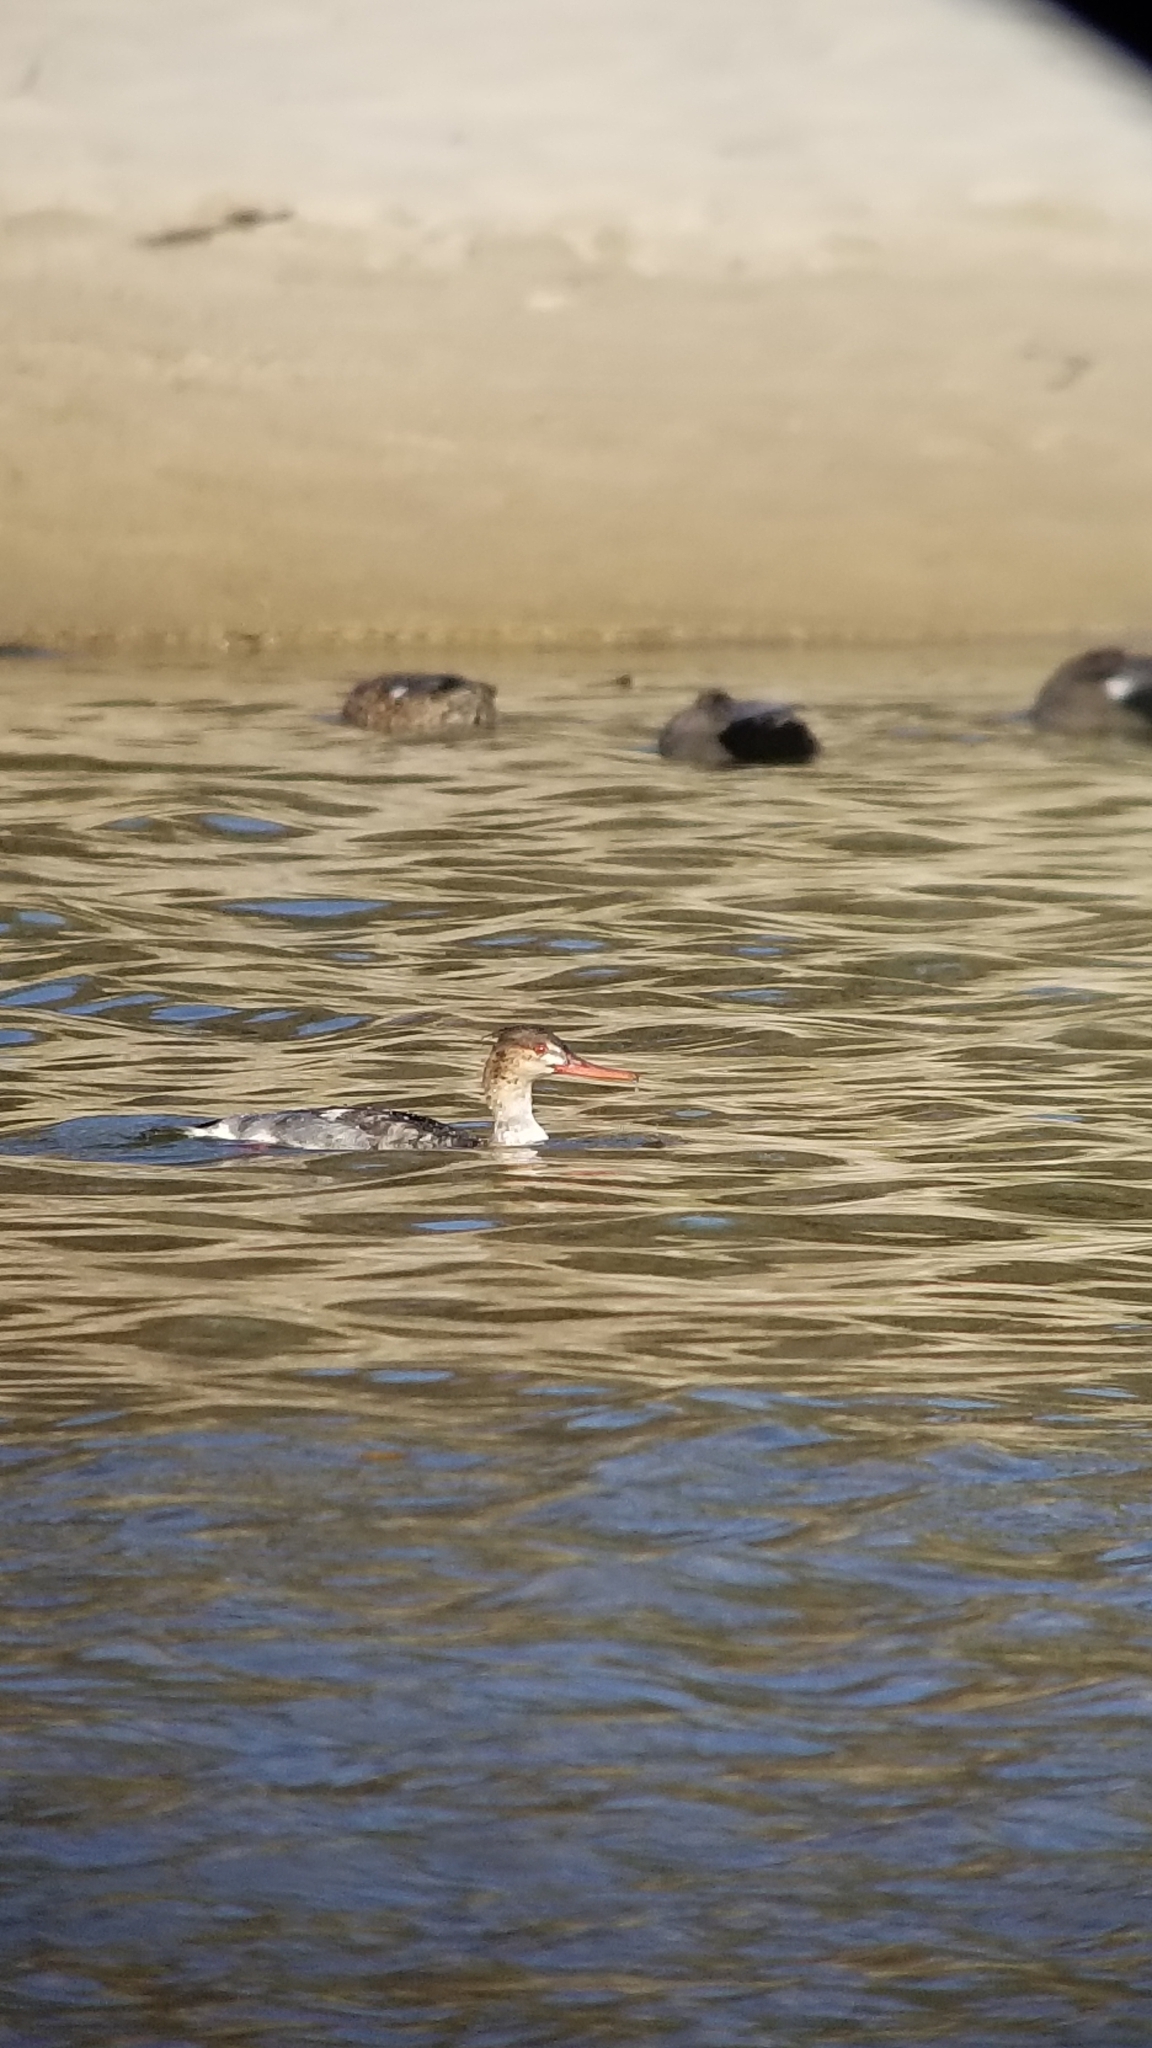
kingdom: Animalia
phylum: Chordata
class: Aves
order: Anseriformes
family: Anatidae
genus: Mergus
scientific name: Mergus serrator
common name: Red-breasted merganser
